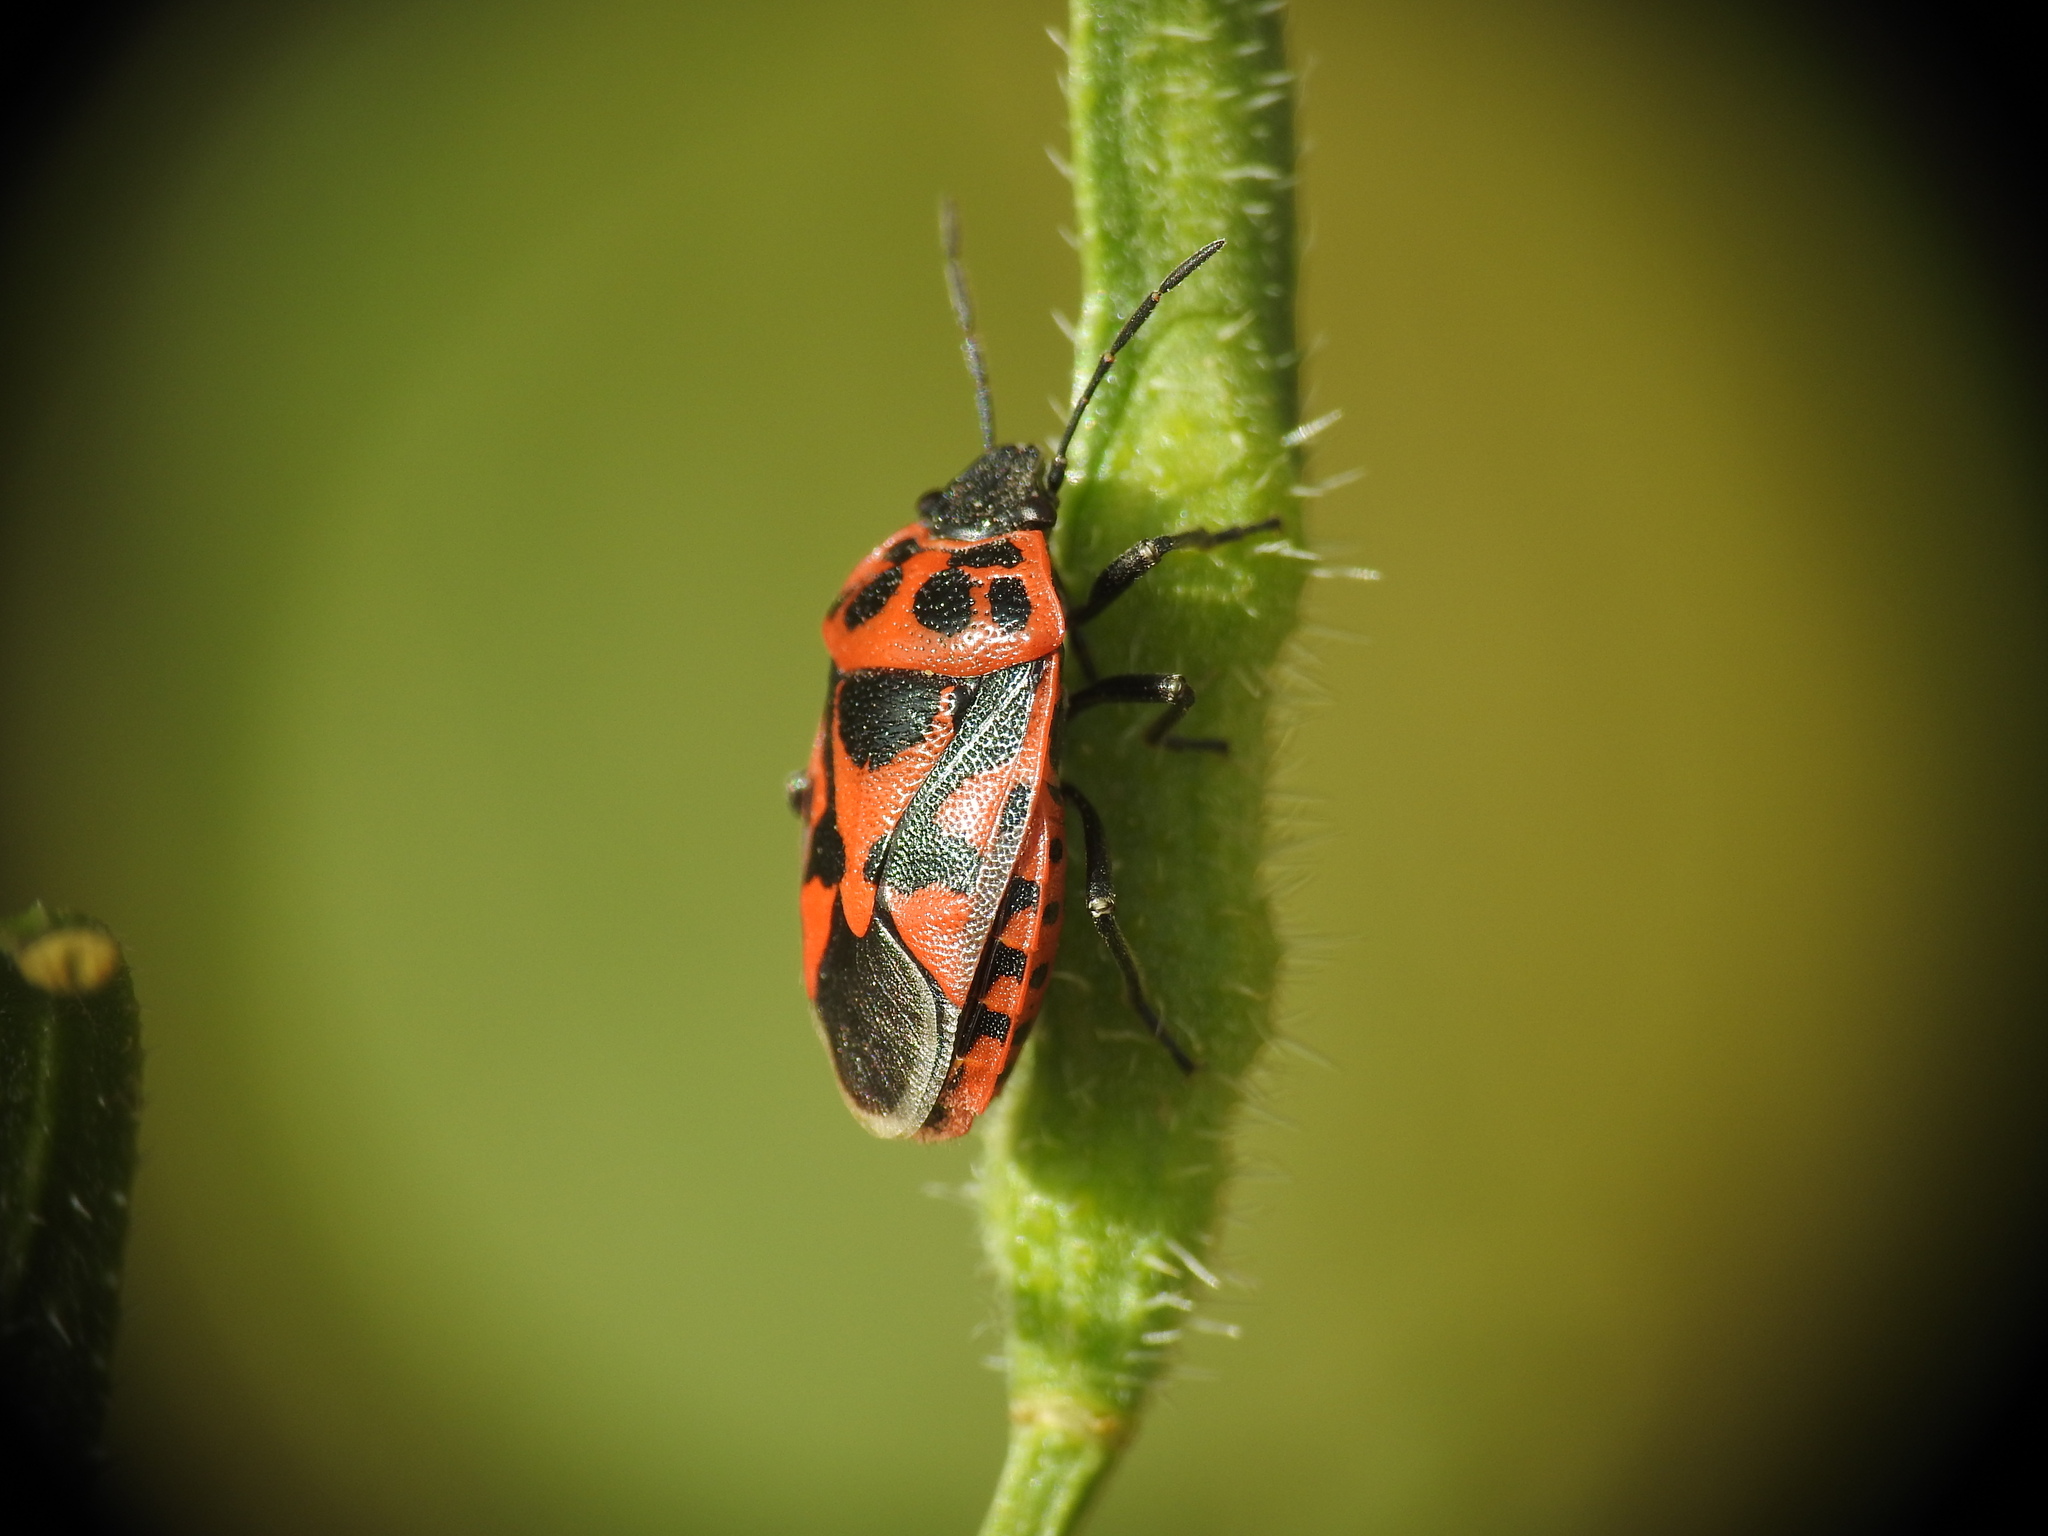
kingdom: Animalia
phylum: Arthropoda
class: Insecta
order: Hemiptera
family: Pentatomidae
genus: Eurydema
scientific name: Eurydema ornata
